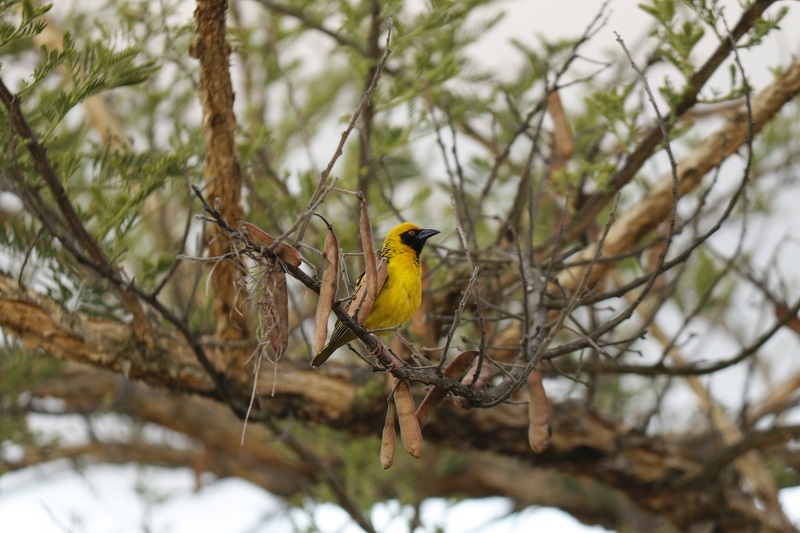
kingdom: Animalia
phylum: Chordata
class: Aves
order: Passeriformes
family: Ploceidae
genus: Ploceus
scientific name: Ploceus cucullatus
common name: Village weaver
